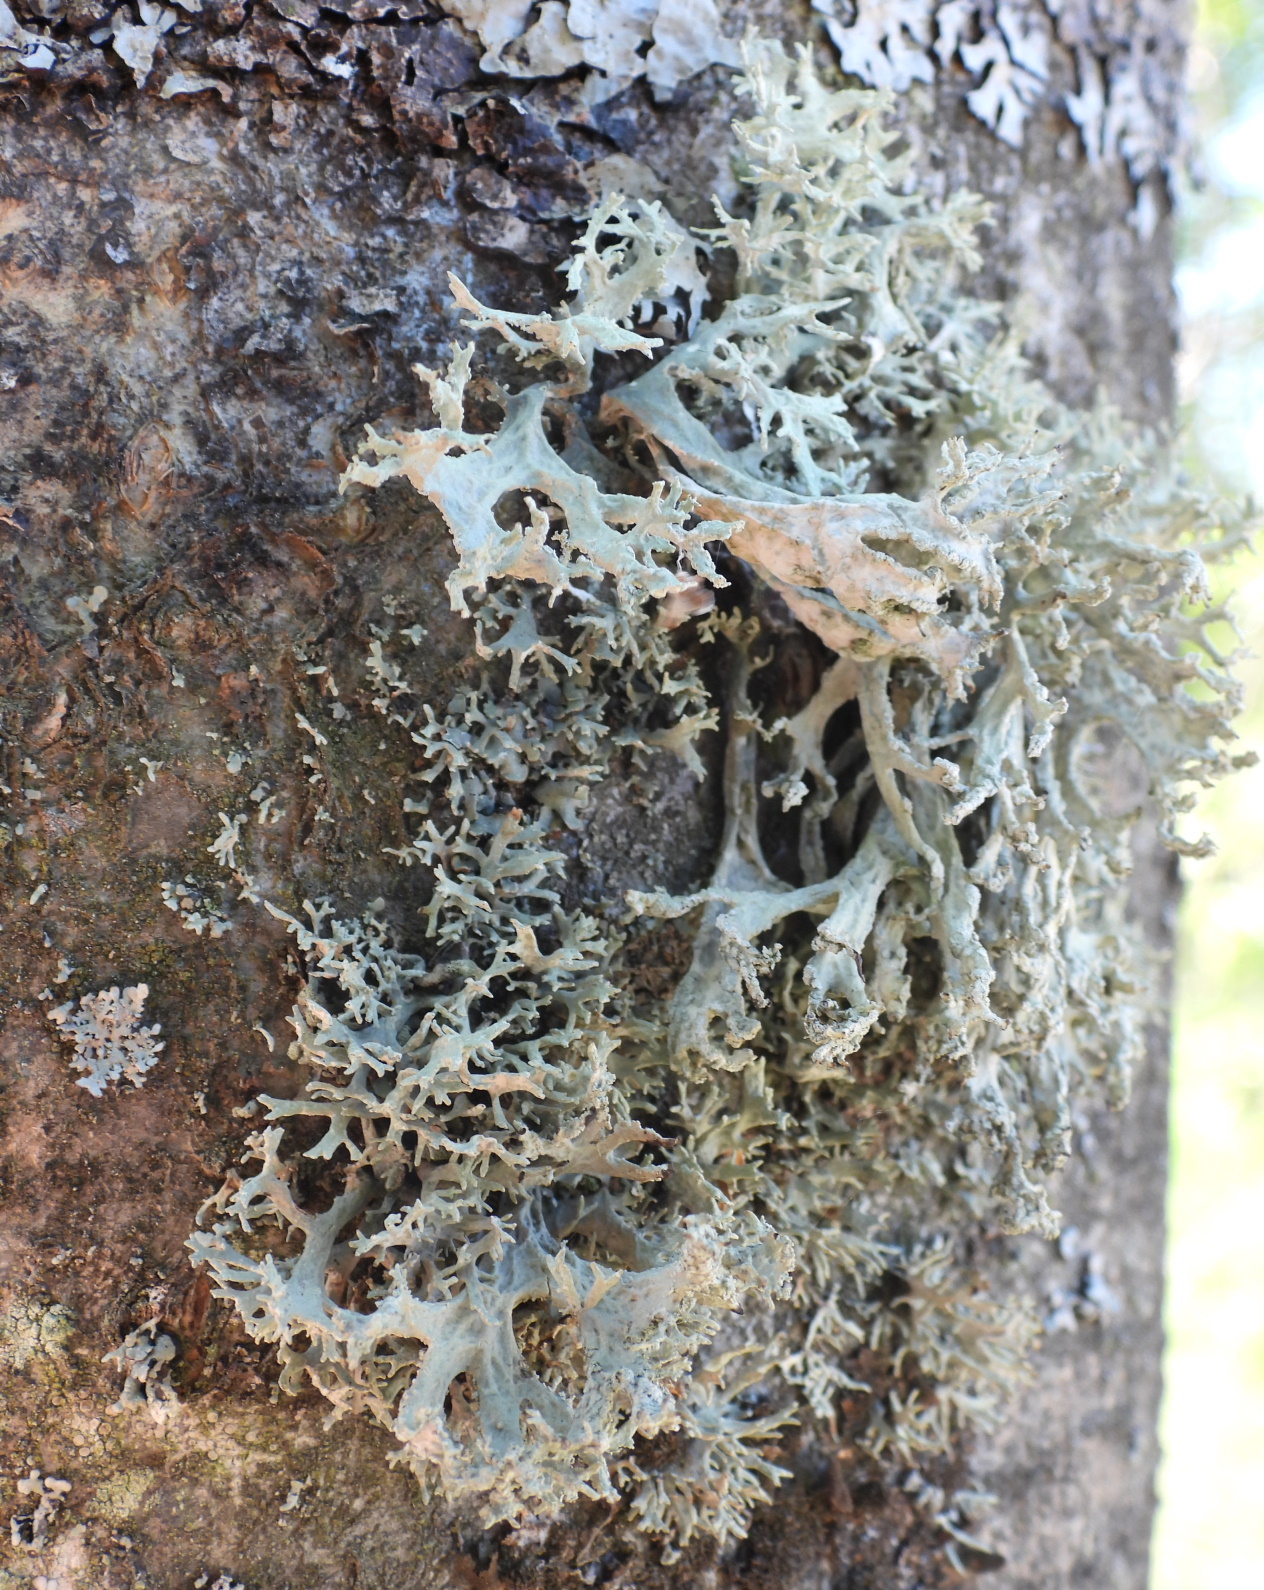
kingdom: Fungi
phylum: Ascomycota
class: Lecanoromycetes
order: Lecanorales
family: Parmeliaceae
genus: Evernia
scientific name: Evernia prunastri
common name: Oak moss
